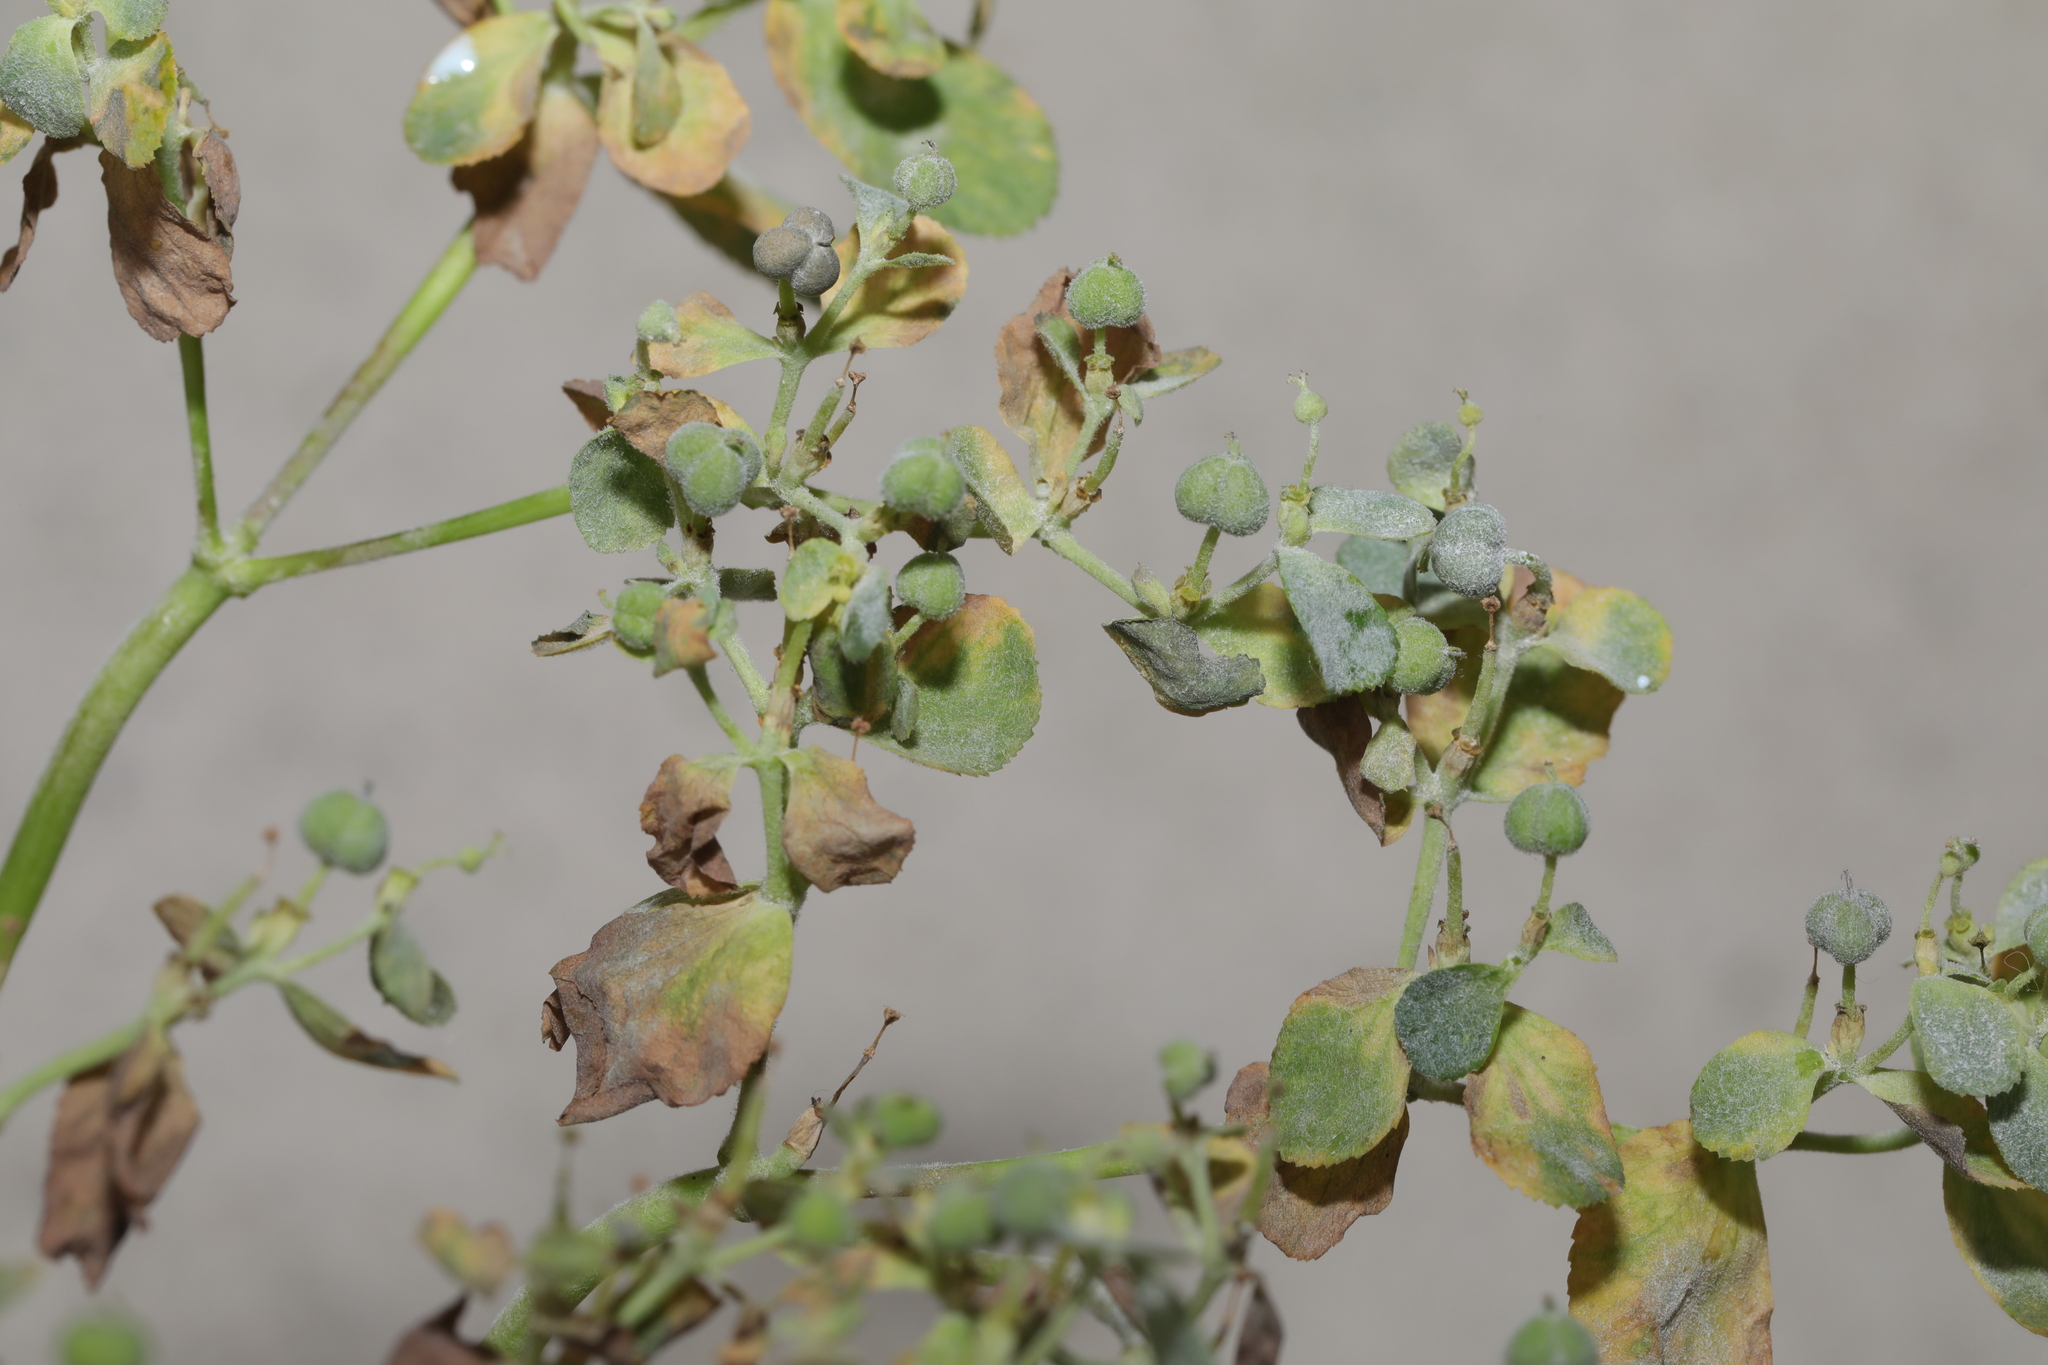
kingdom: Plantae
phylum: Tracheophyta
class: Magnoliopsida
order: Malpighiales
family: Euphorbiaceae
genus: Euphorbia
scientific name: Euphorbia helioscopia
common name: Sun spurge
